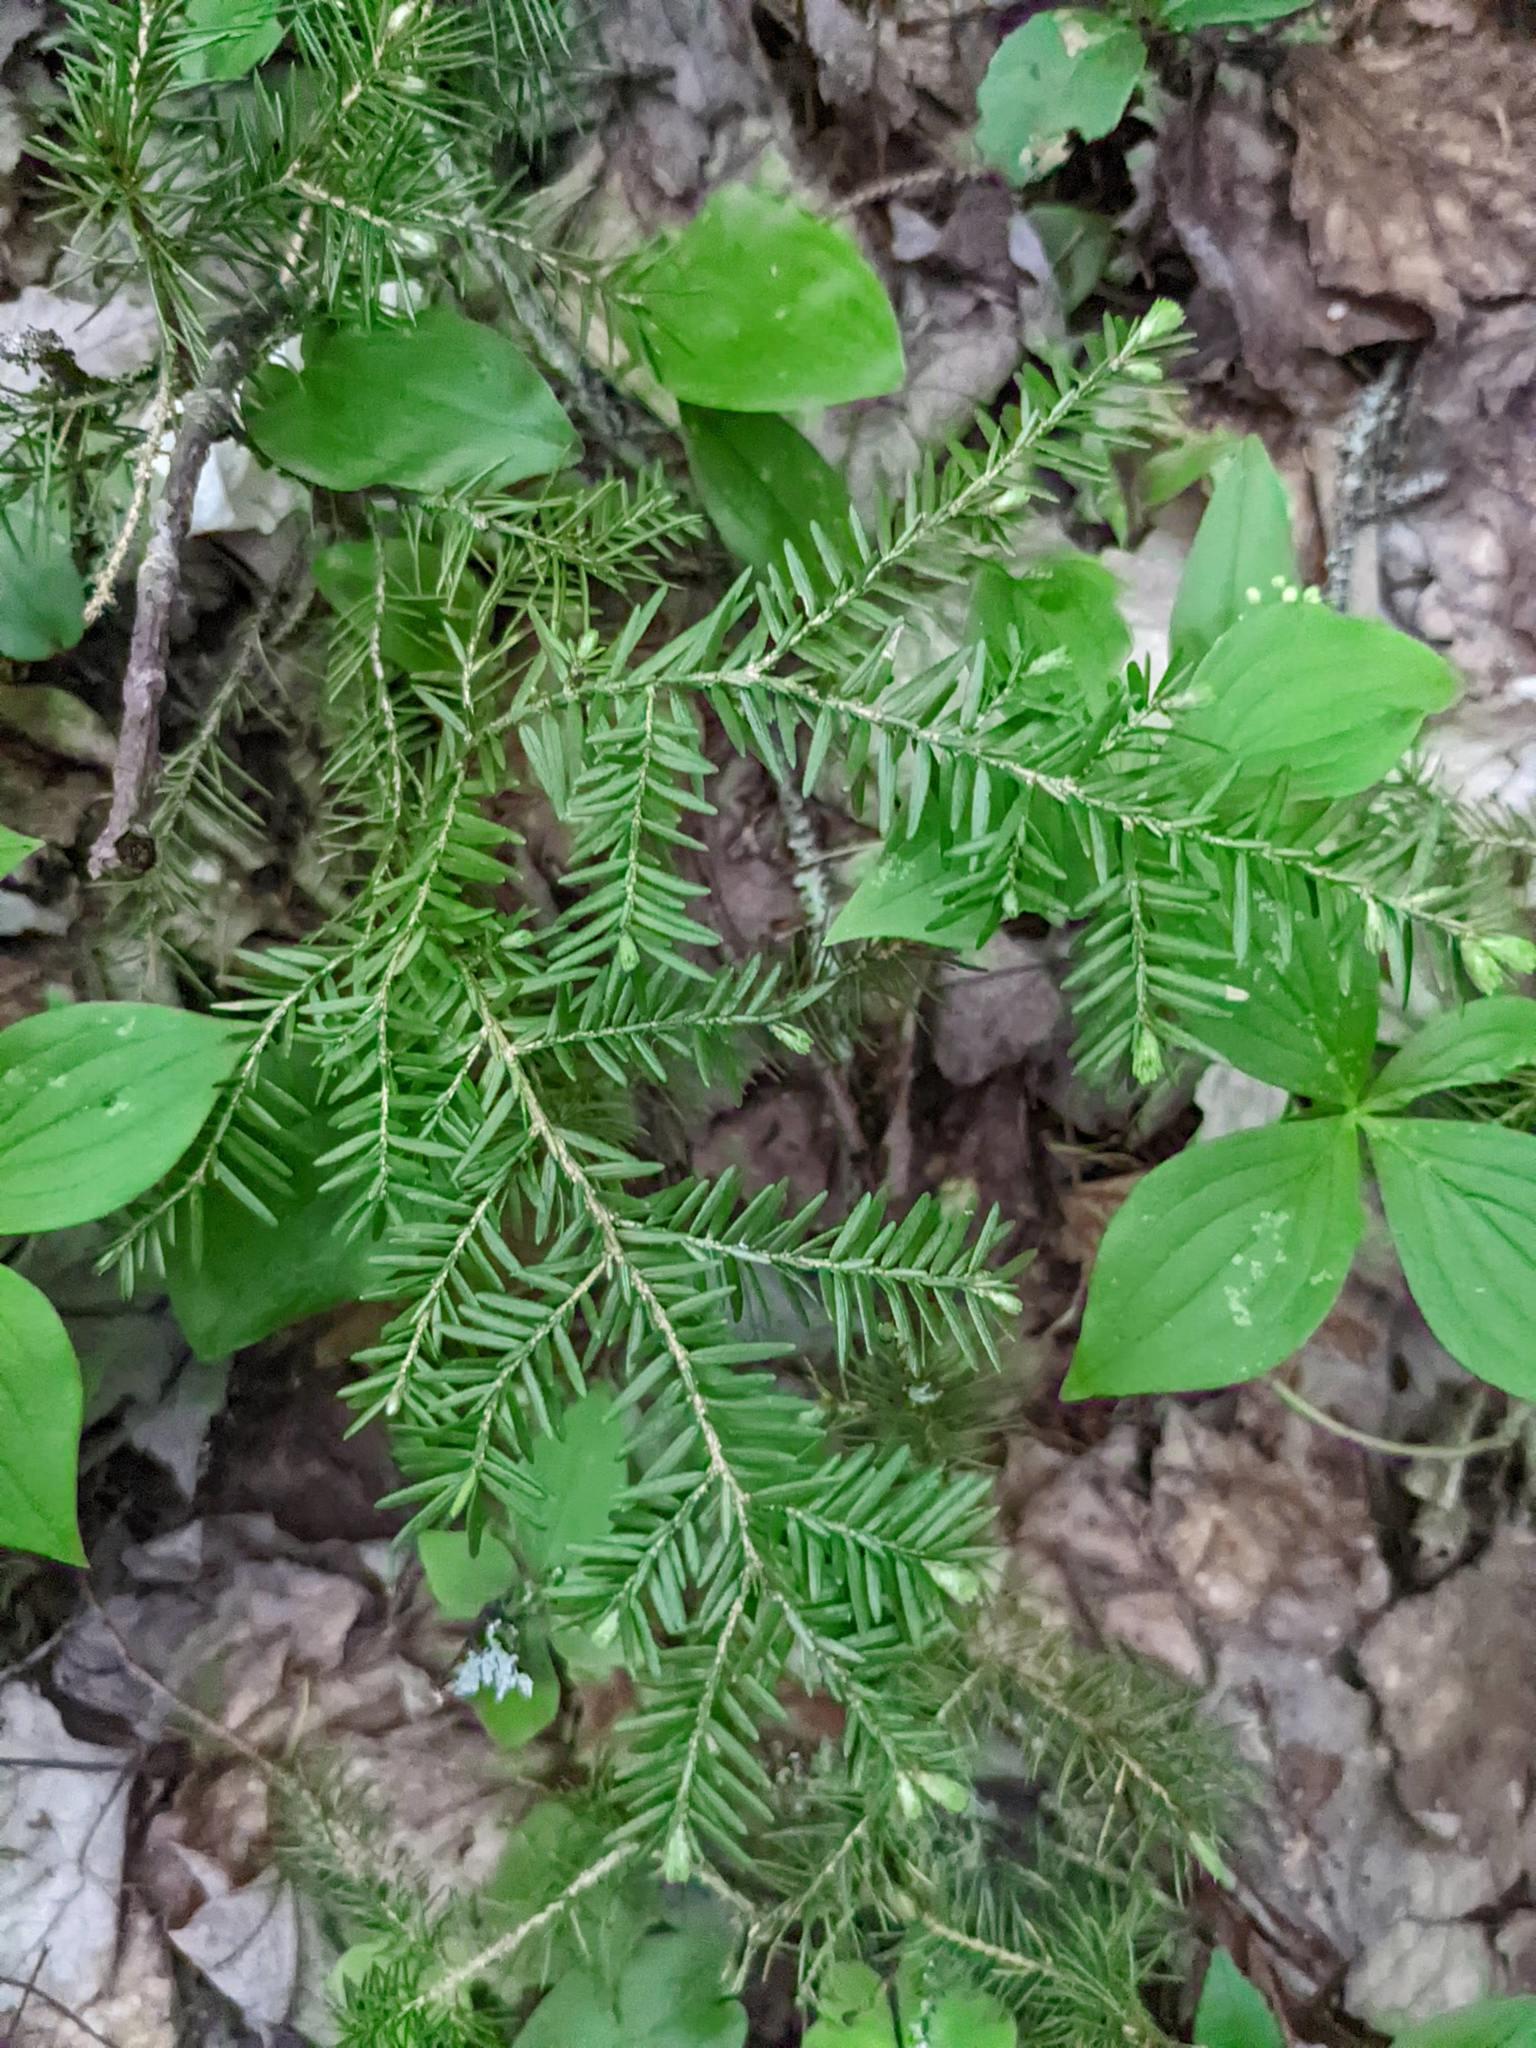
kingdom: Plantae
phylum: Tracheophyta
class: Pinopsida
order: Pinales
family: Pinaceae
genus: Tsuga
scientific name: Tsuga canadensis
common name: Eastern hemlock
